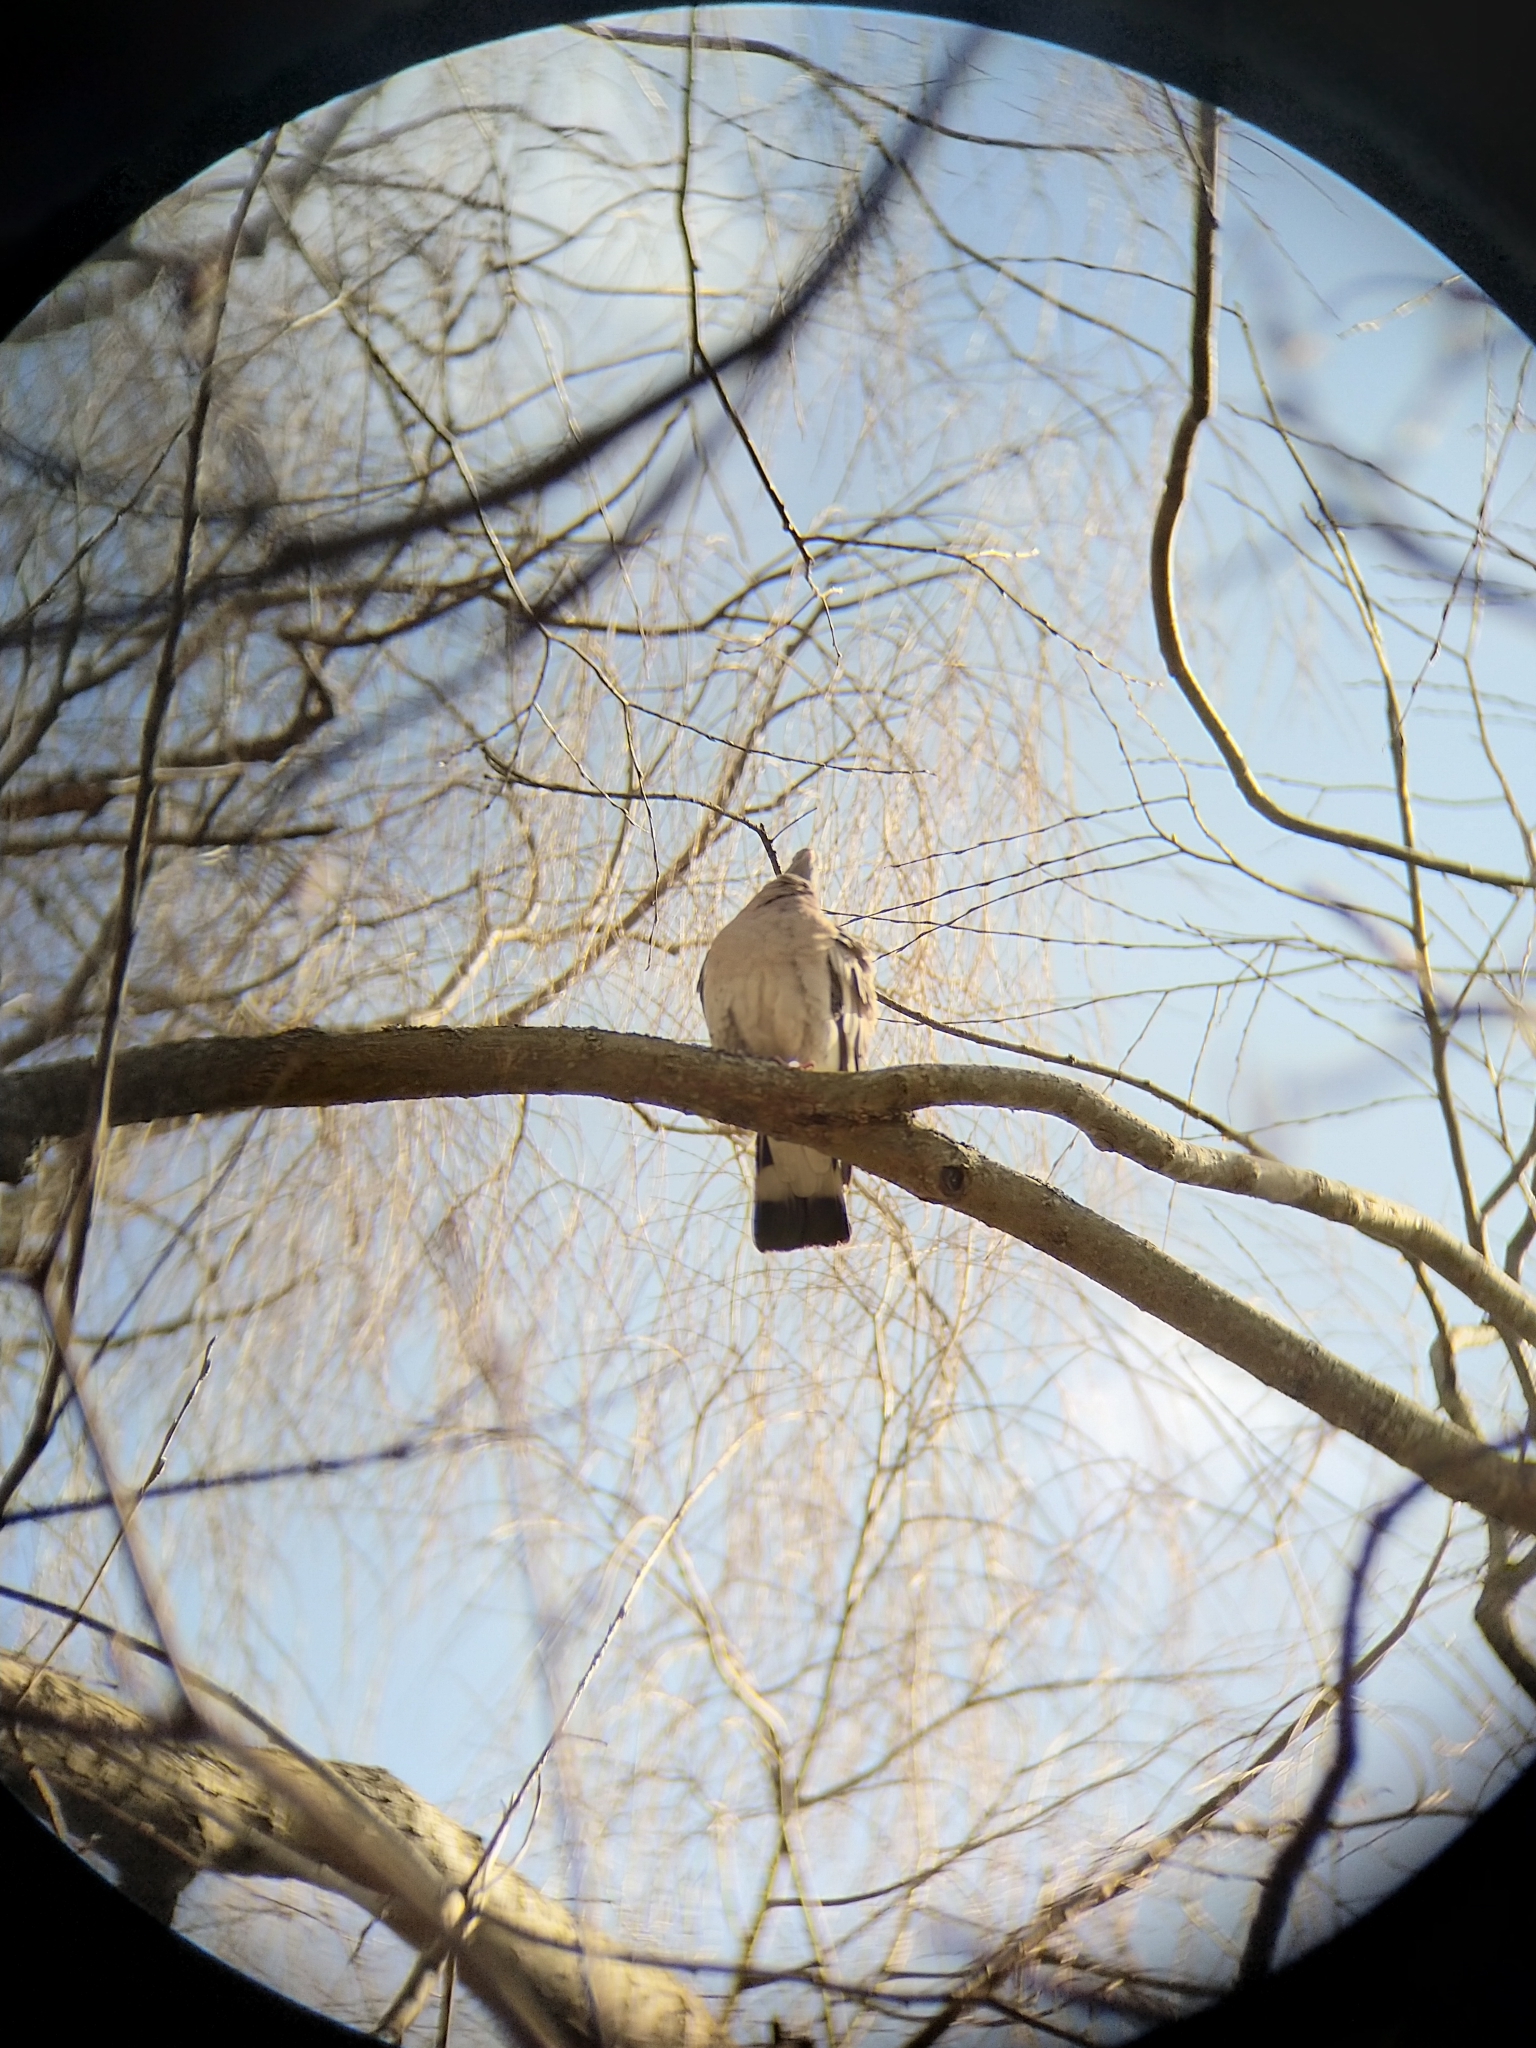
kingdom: Animalia
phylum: Chordata
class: Aves
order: Columbiformes
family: Columbidae
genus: Columba
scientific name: Columba palumbus
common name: Common wood pigeon
